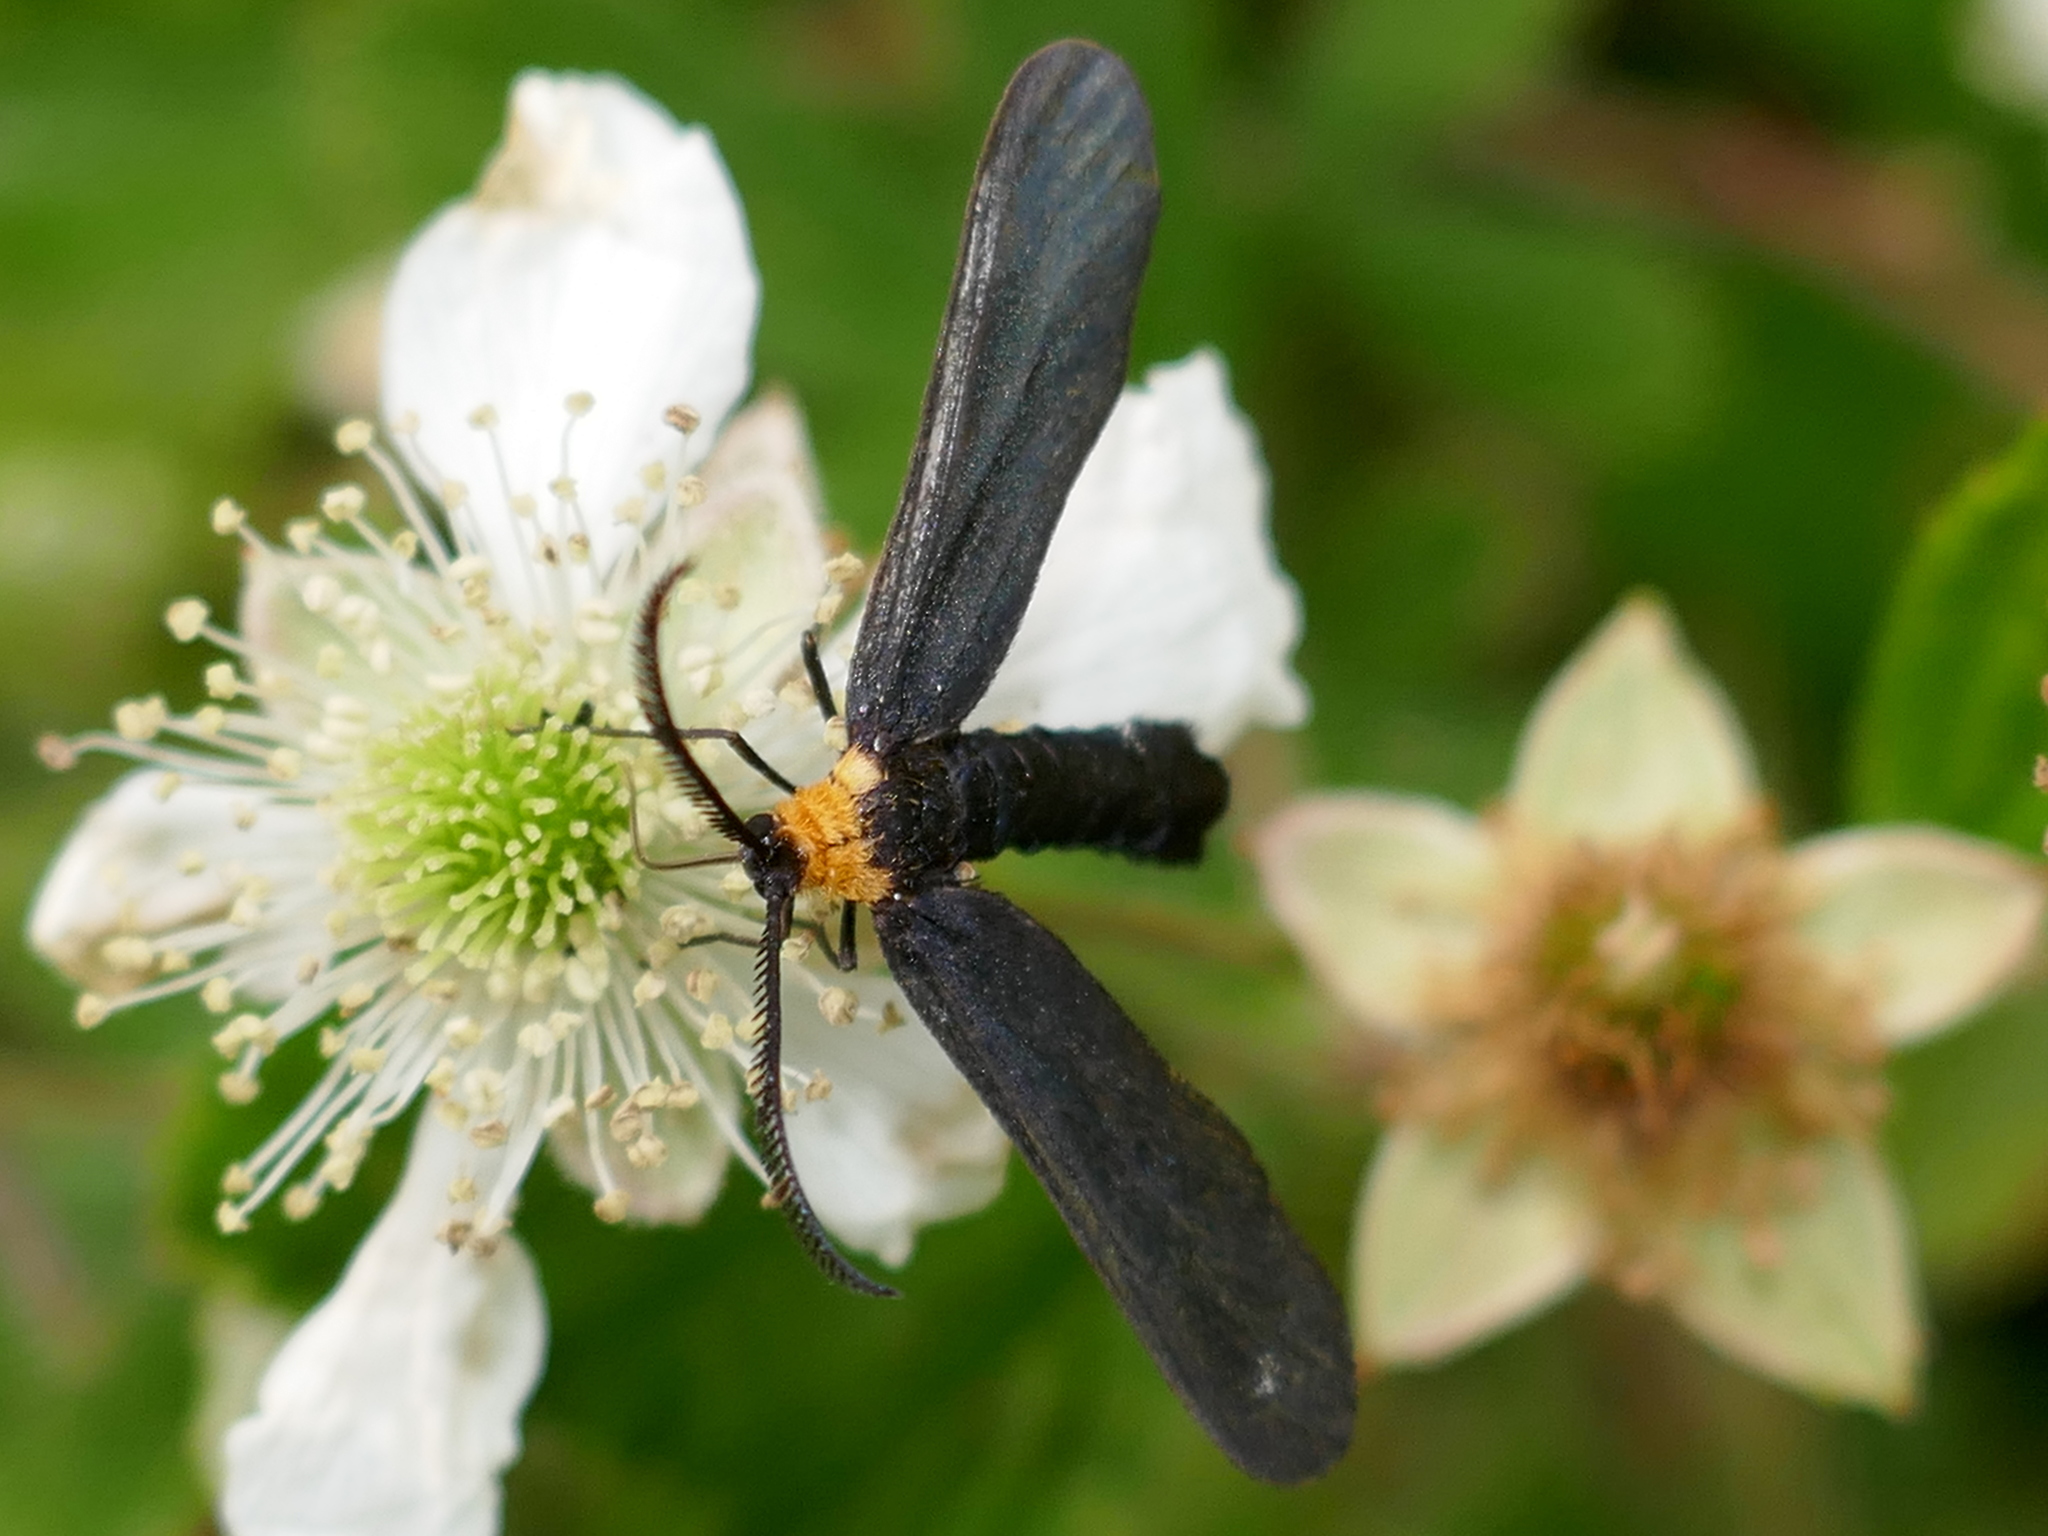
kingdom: Animalia
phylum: Arthropoda
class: Insecta
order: Lepidoptera
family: Zygaenidae
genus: Harrisina
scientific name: Harrisina americana
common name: Grapeleaf skeletonizer moth
